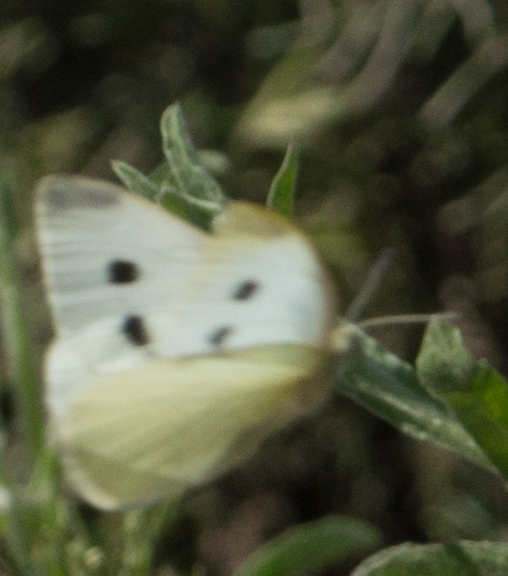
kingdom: Animalia
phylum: Arthropoda
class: Insecta
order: Lepidoptera
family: Pieridae
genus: Pieris
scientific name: Pieris rapae
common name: Small white
